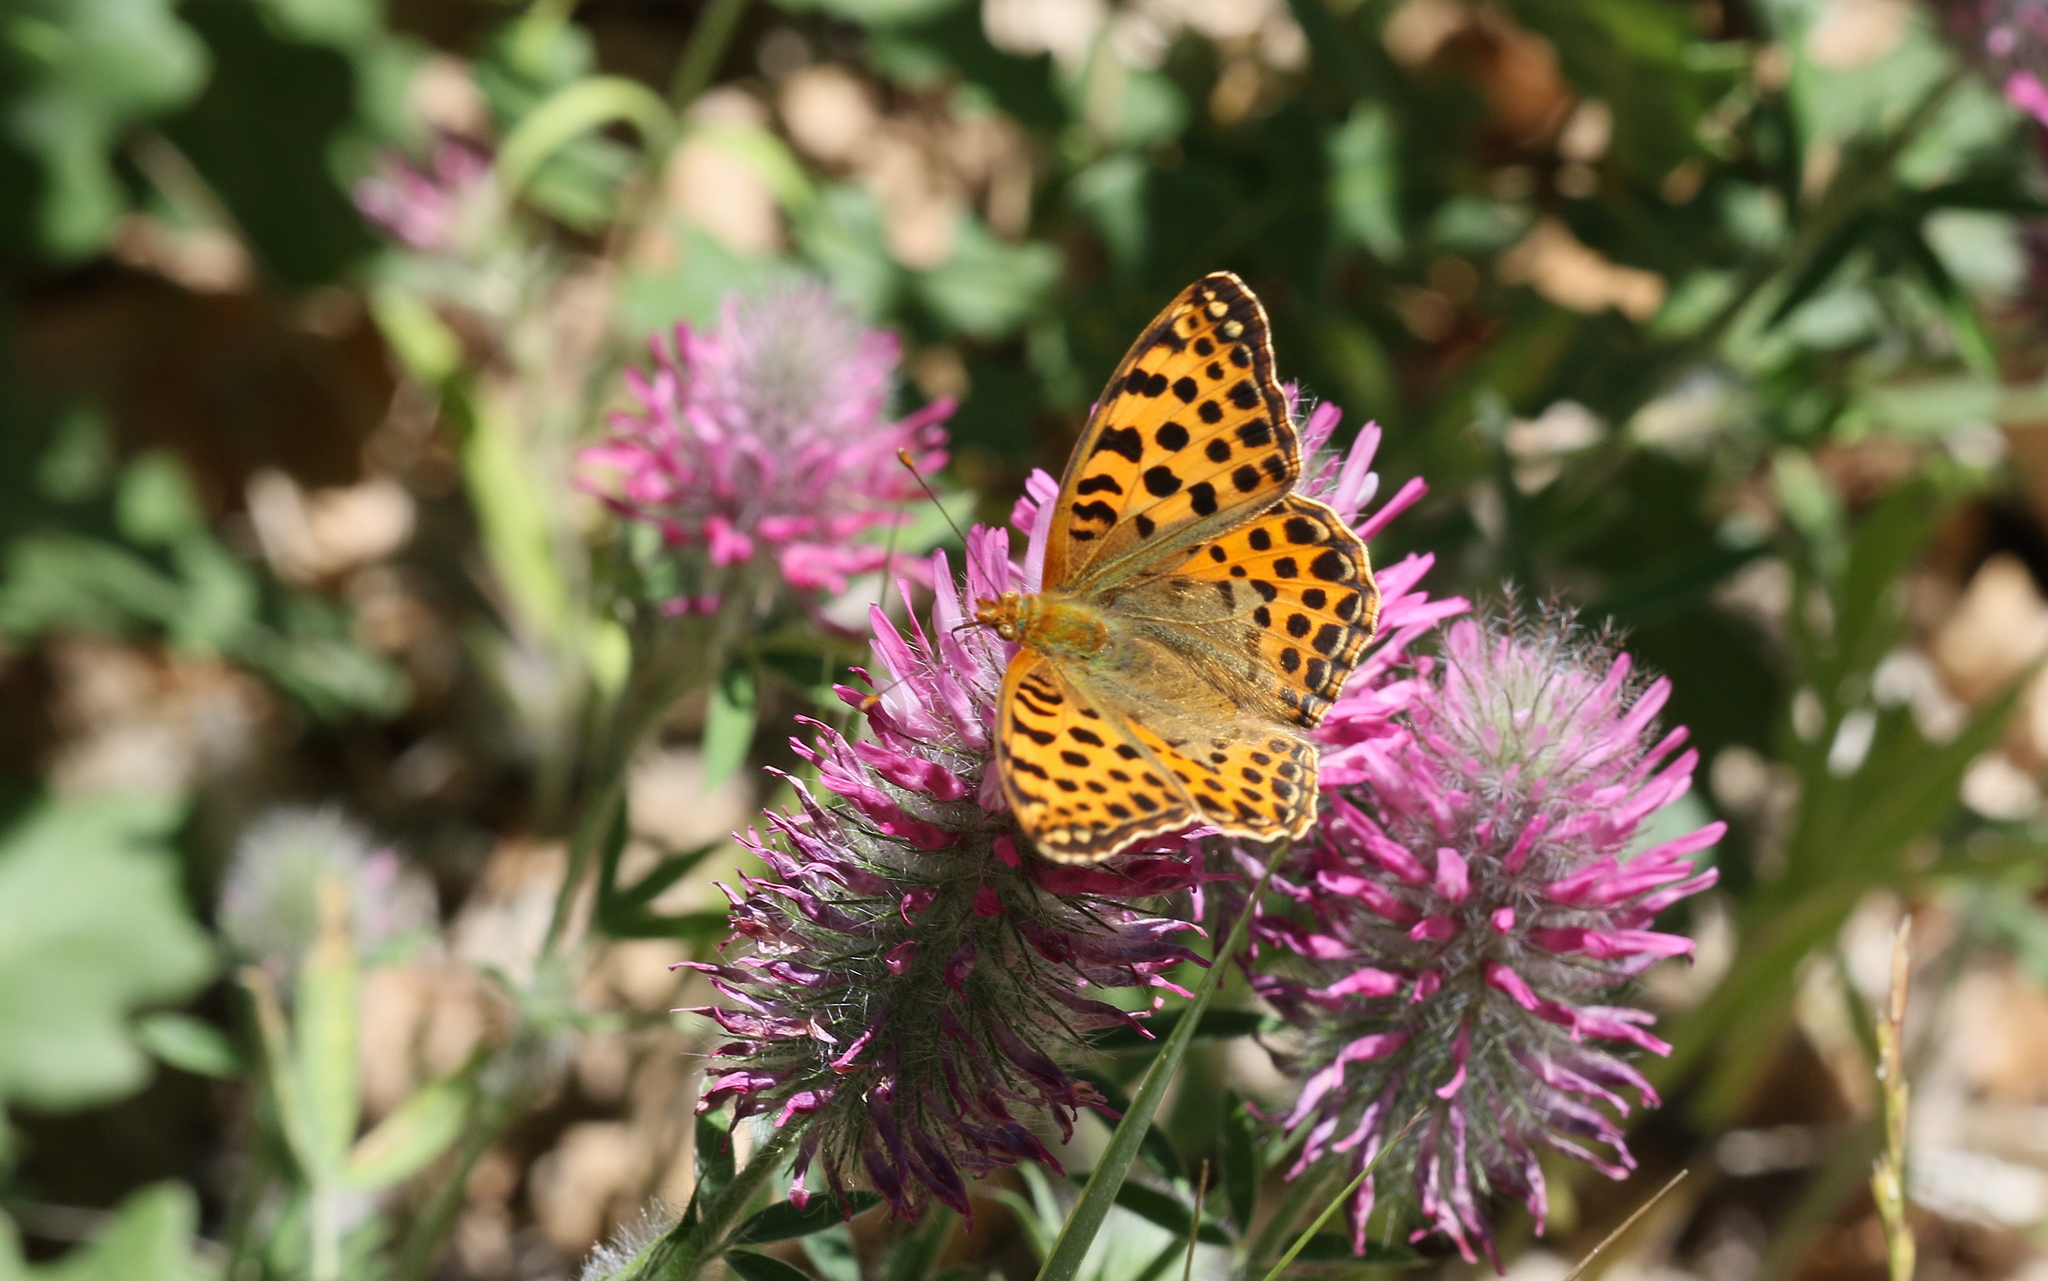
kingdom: Animalia
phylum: Arthropoda
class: Insecta
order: Lepidoptera
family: Nymphalidae
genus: Issoria
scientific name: Issoria lathonia
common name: Queen of spain fritillary
